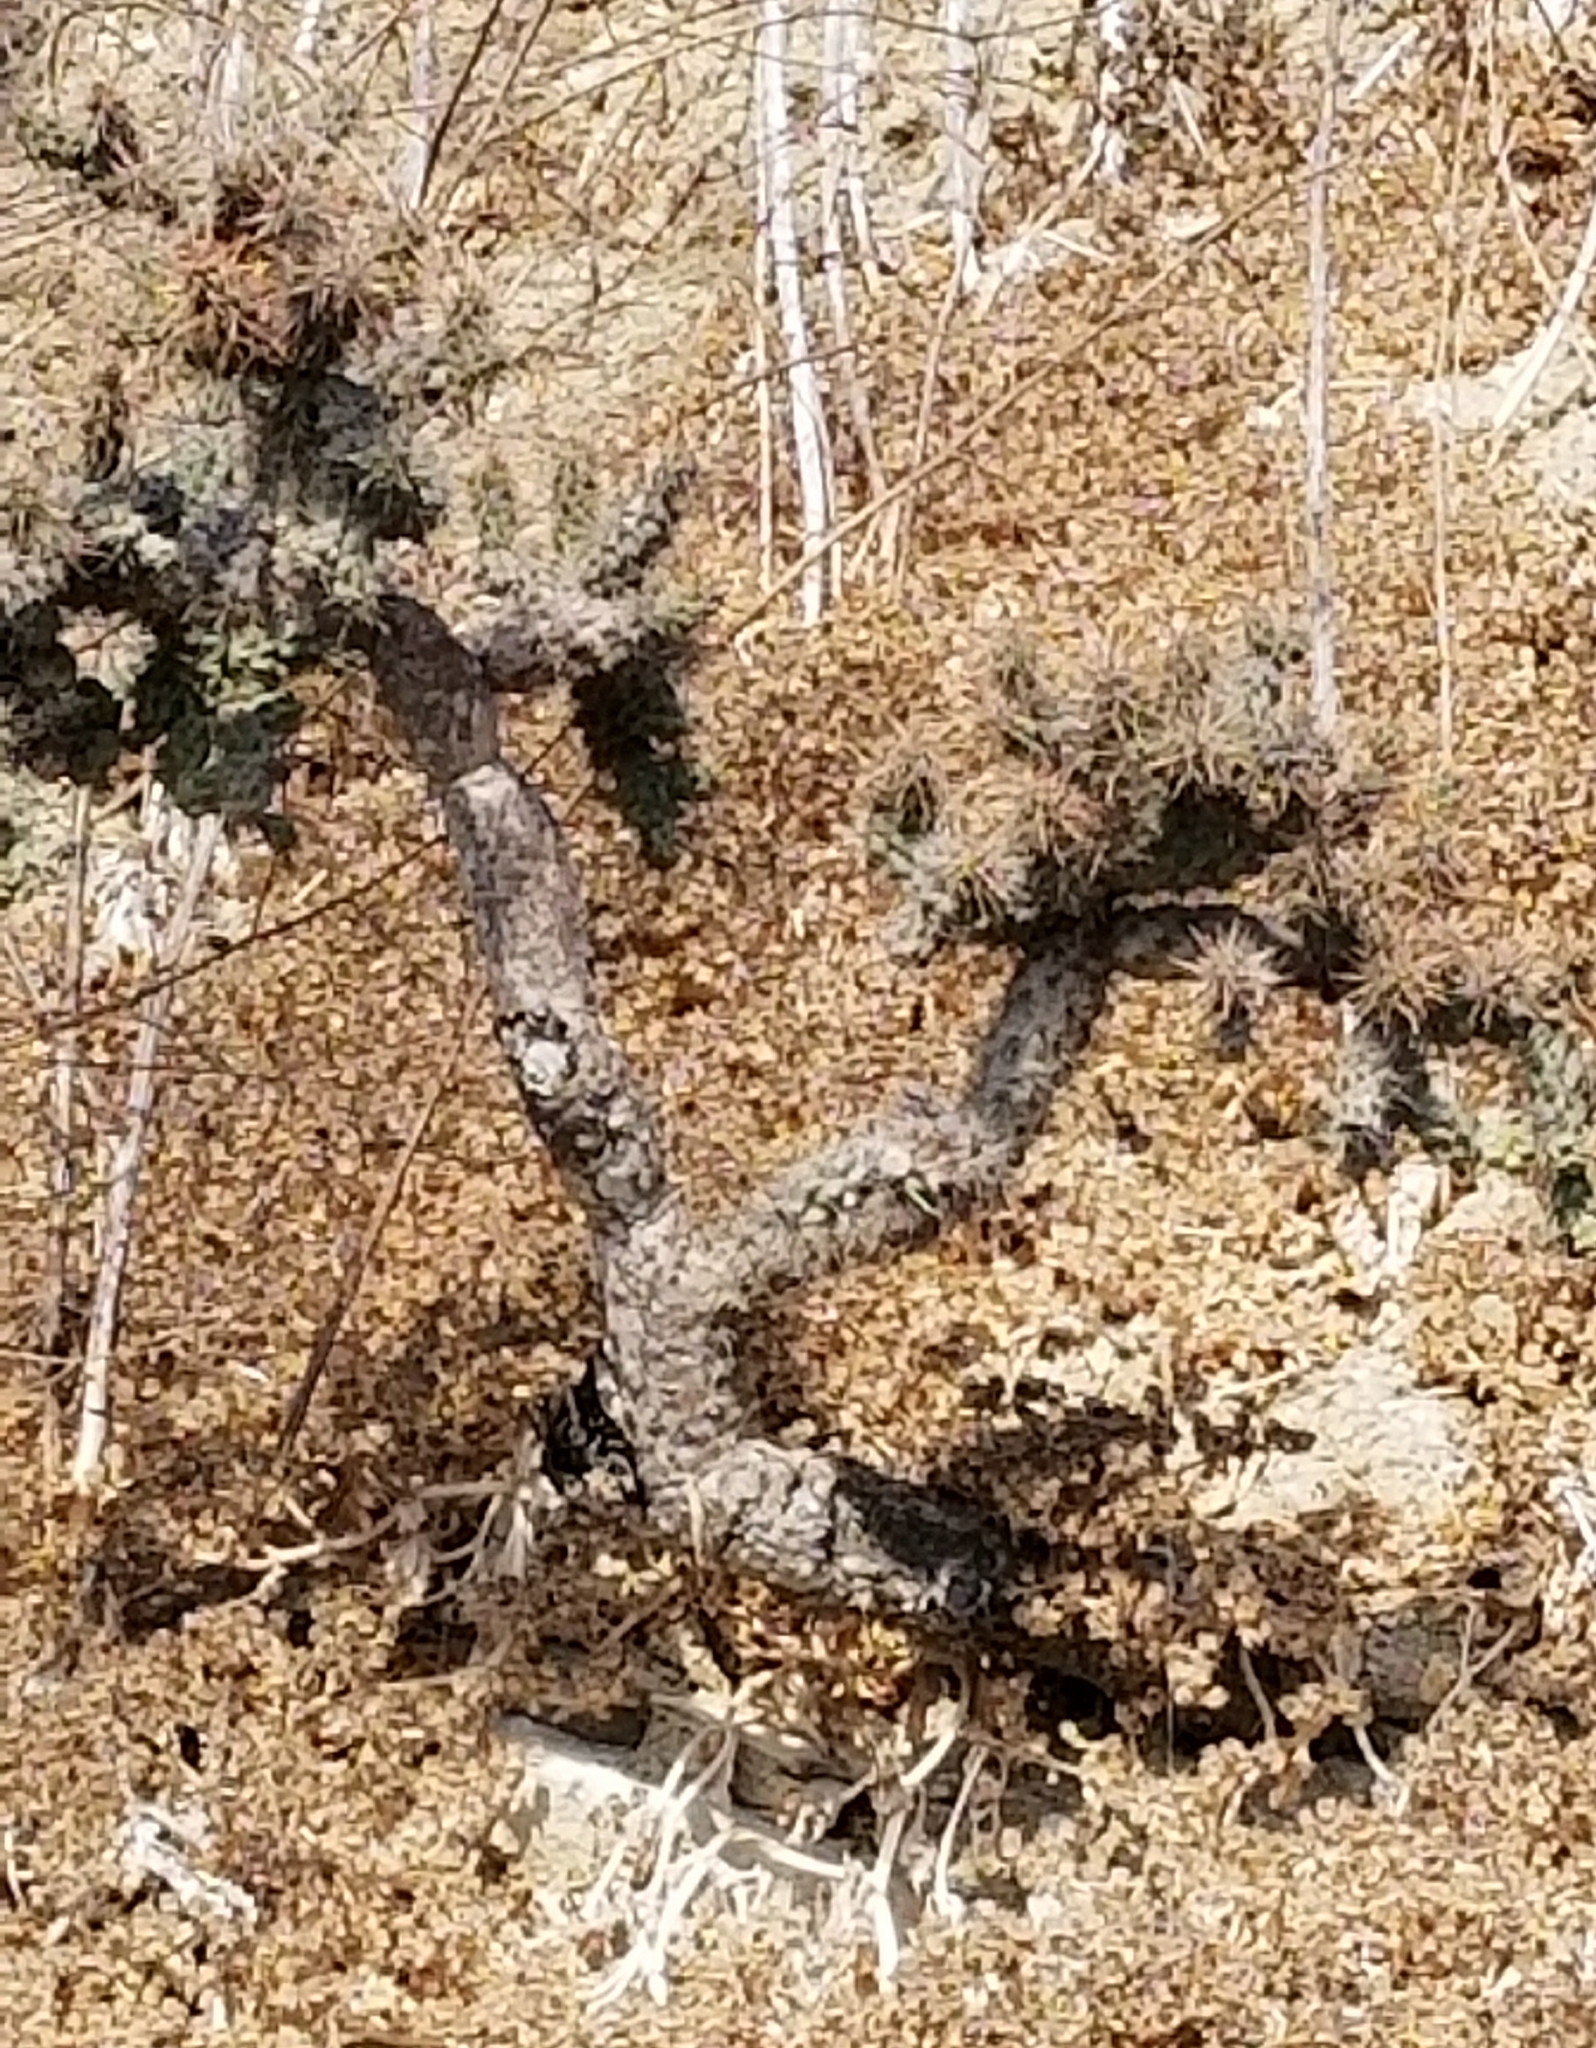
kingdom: Plantae
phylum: Tracheophyta
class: Magnoliopsida
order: Caryophyllales
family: Cactaceae
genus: Cylindropuntia
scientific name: Cylindropuntia prolifera
